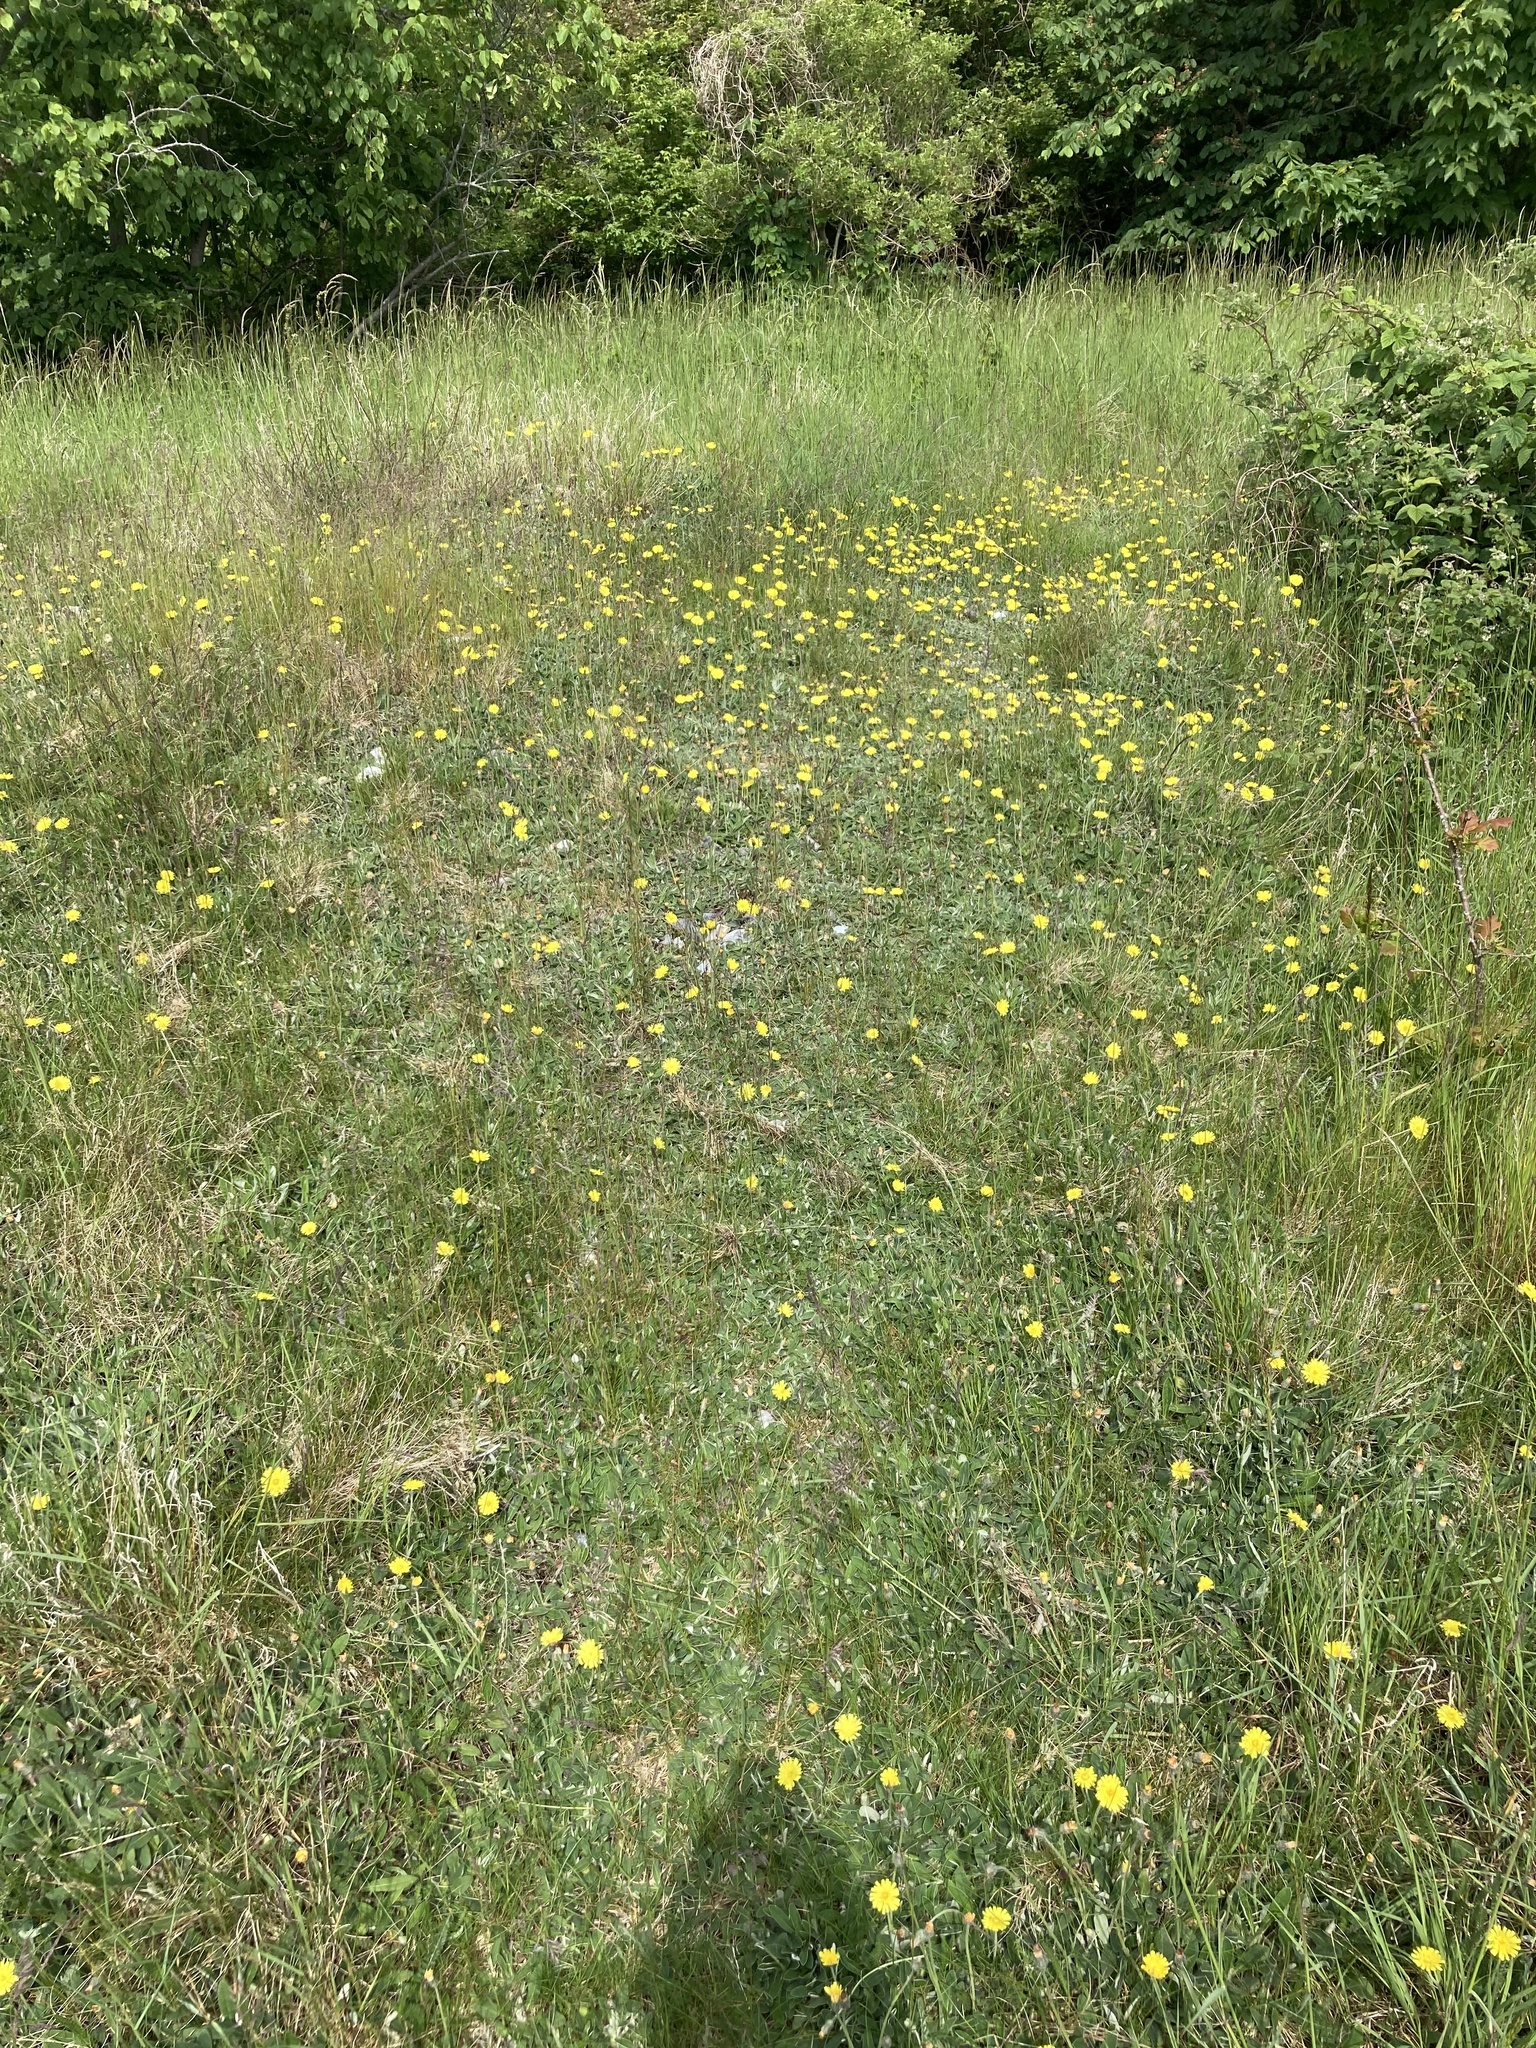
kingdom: Plantae
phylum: Tracheophyta
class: Magnoliopsida
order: Asterales
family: Asteraceae
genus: Pilosella
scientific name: Pilosella officinarum
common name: Mouse-ear hawkweed
